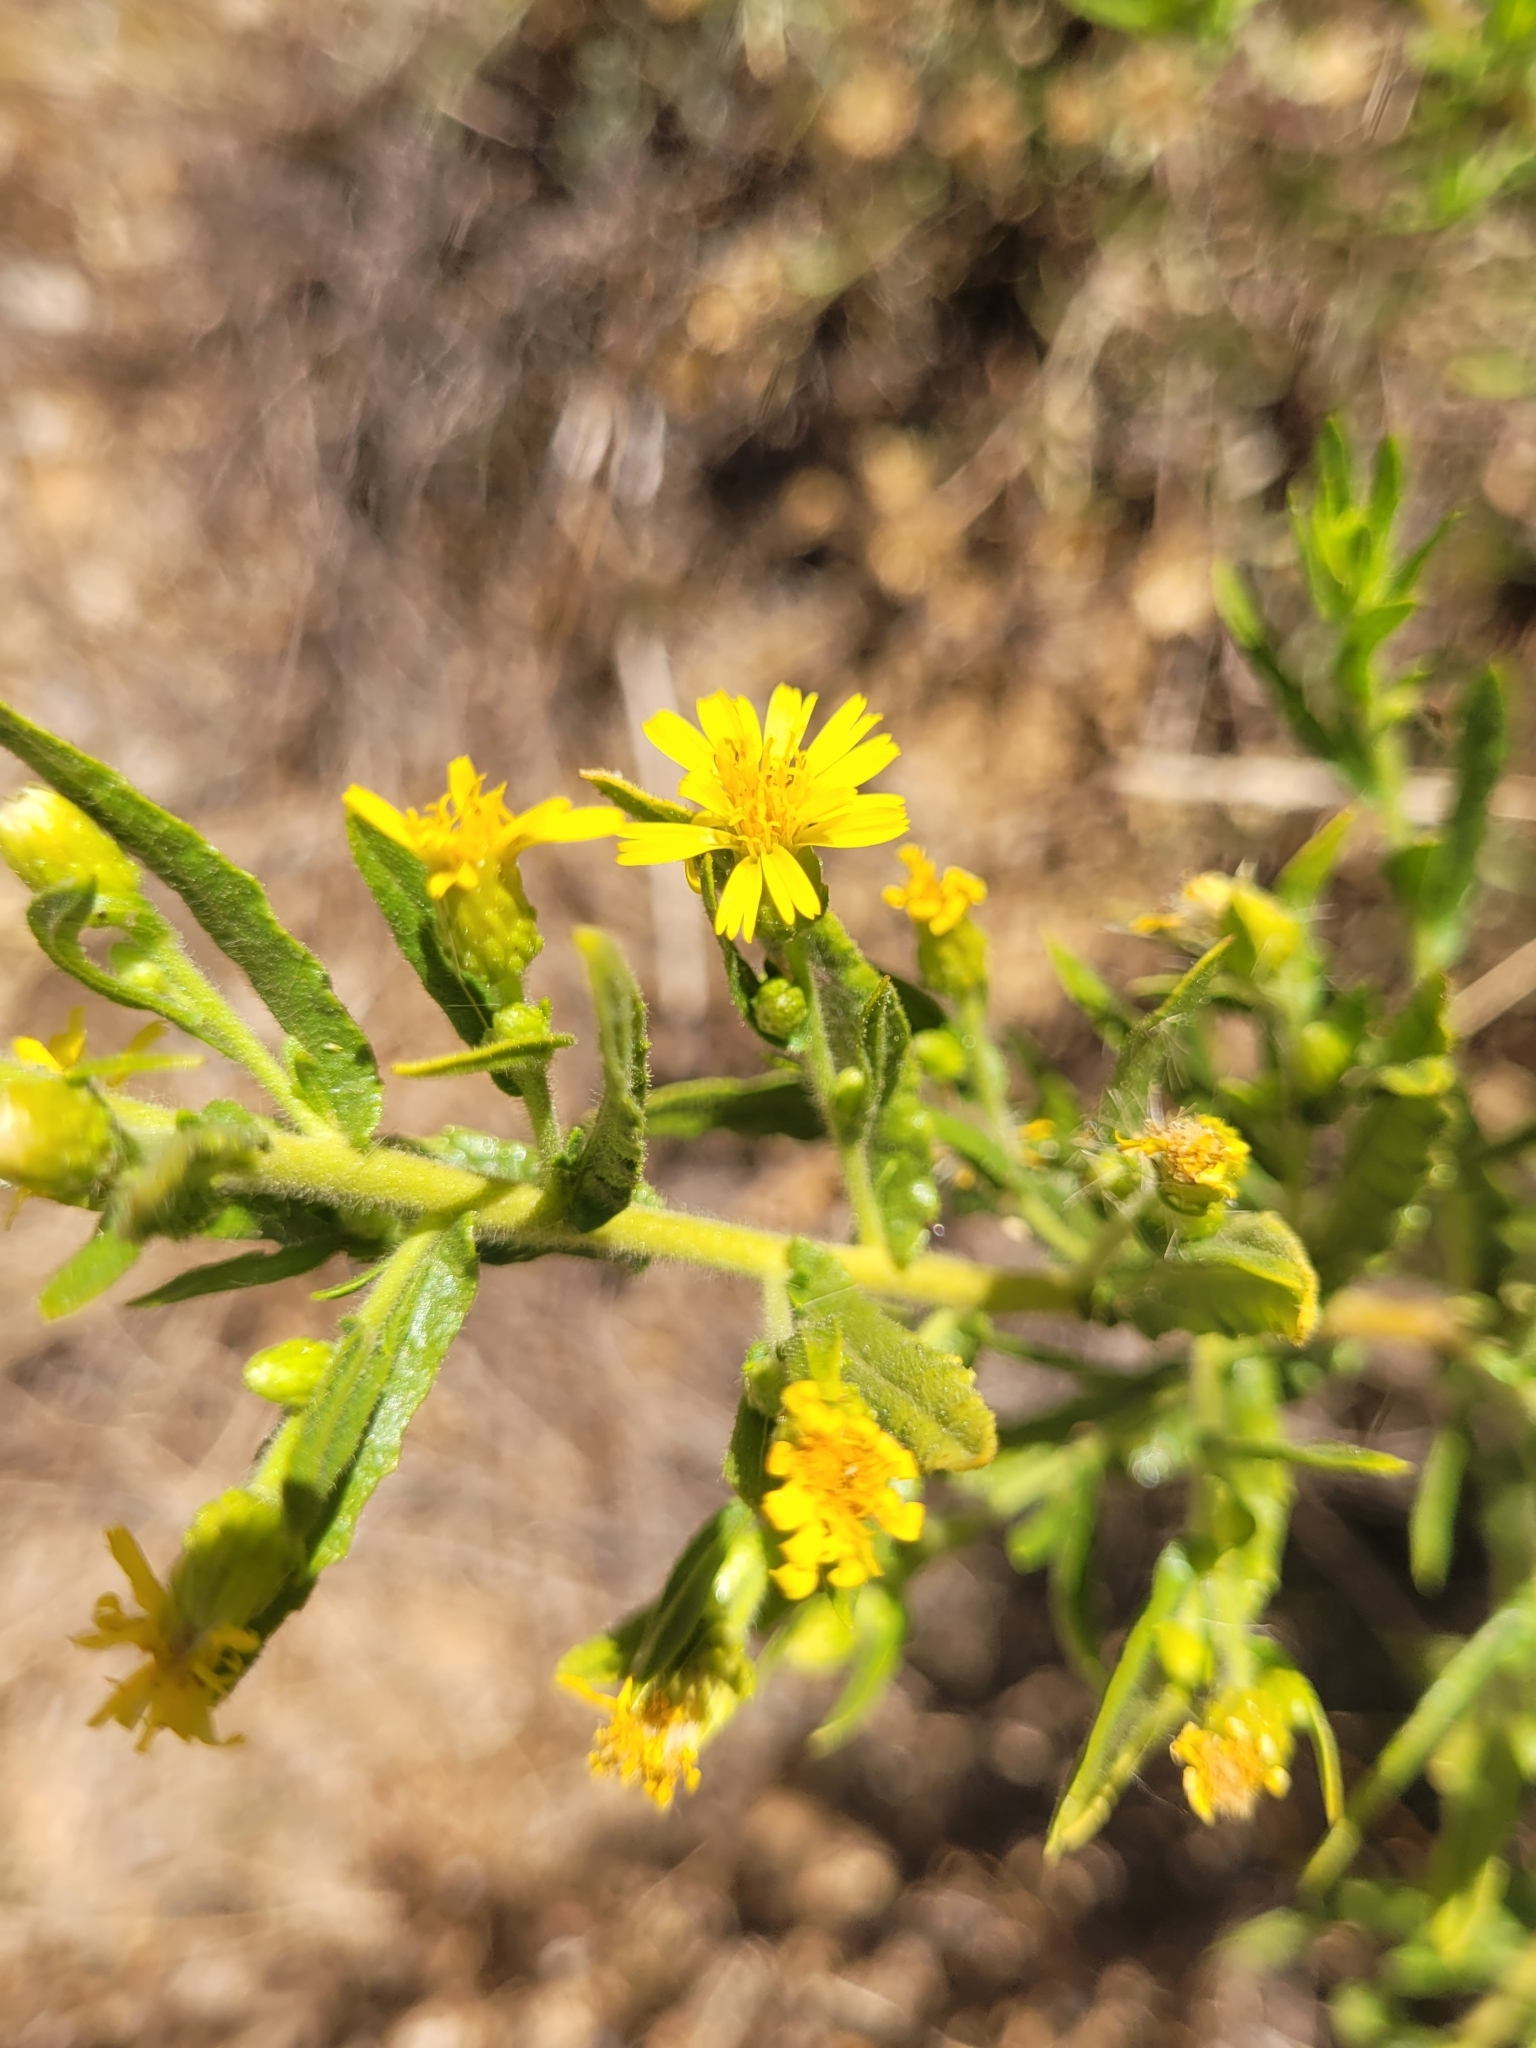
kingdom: Plantae
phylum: Tracheophyta
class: Magnoliopsida
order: Asterales
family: Asteraceae
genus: Dittrichia
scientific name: Dittrichia viscosa
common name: Woody fleabane
